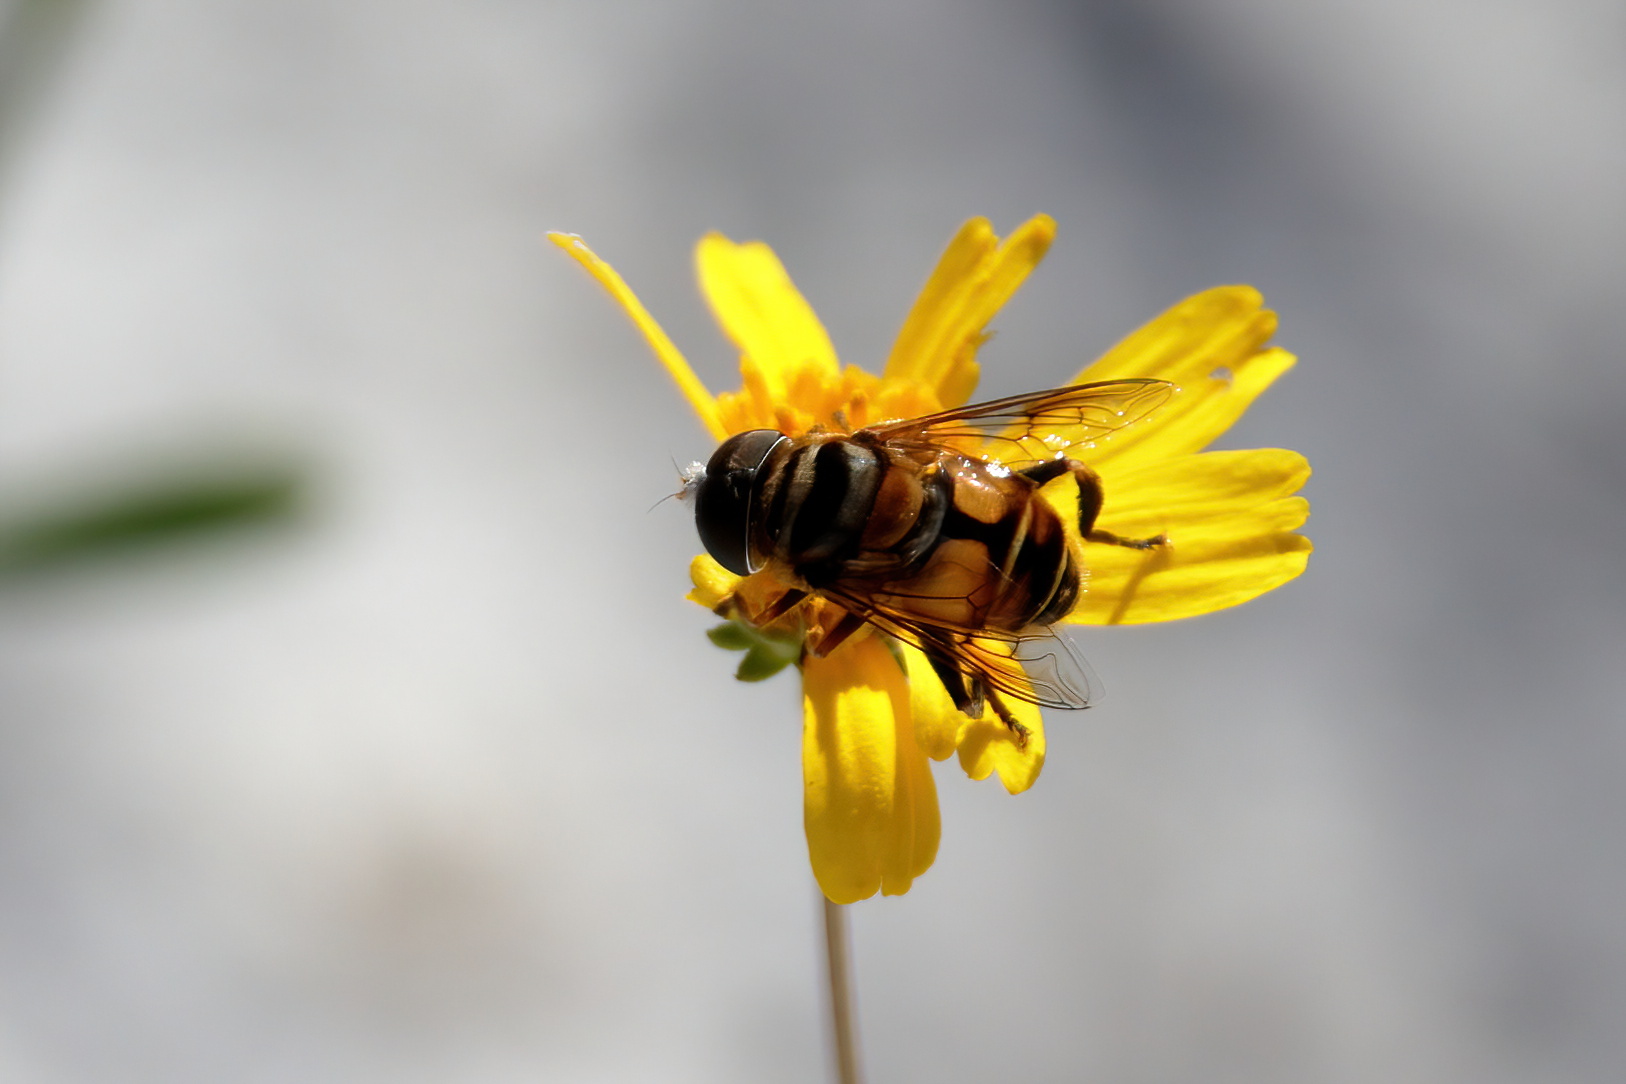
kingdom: Animalia
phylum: Arthropoda
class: Insecta
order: Diptera
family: Syrphidae
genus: Palpada
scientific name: Palpada vinetorum
